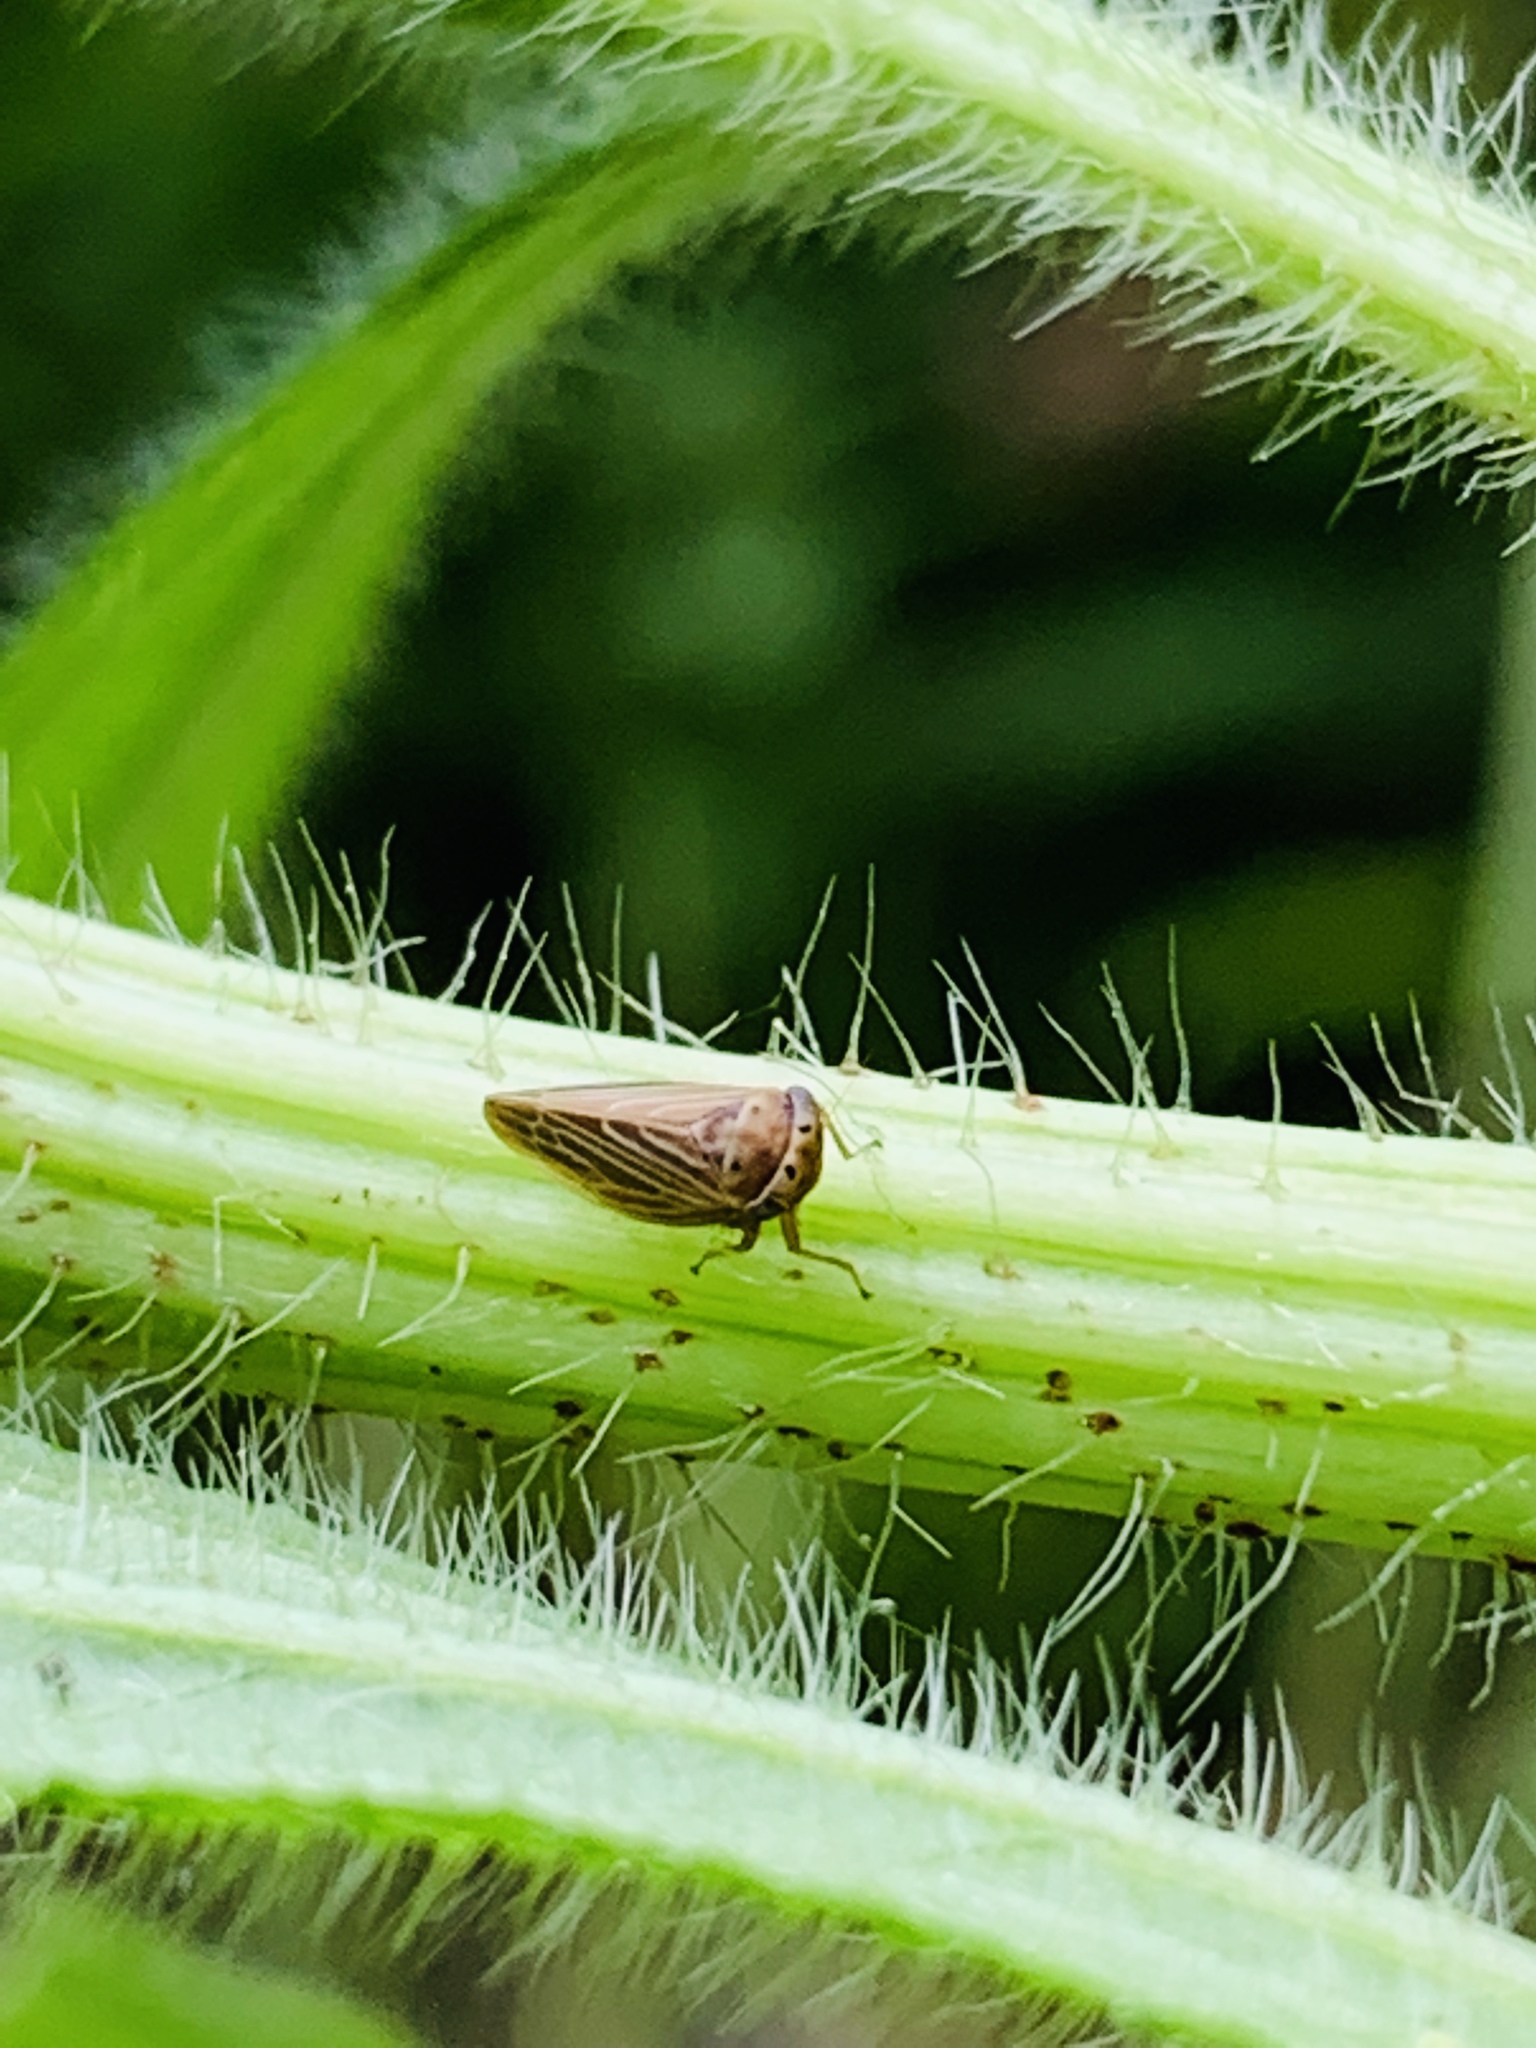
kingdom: Animalia
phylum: Arthropoda
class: Insecta
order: Hemiptera
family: Cicadellidae
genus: Agalliota
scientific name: Agalliota quadripunctata
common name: The four-spotted clover leafhopper
